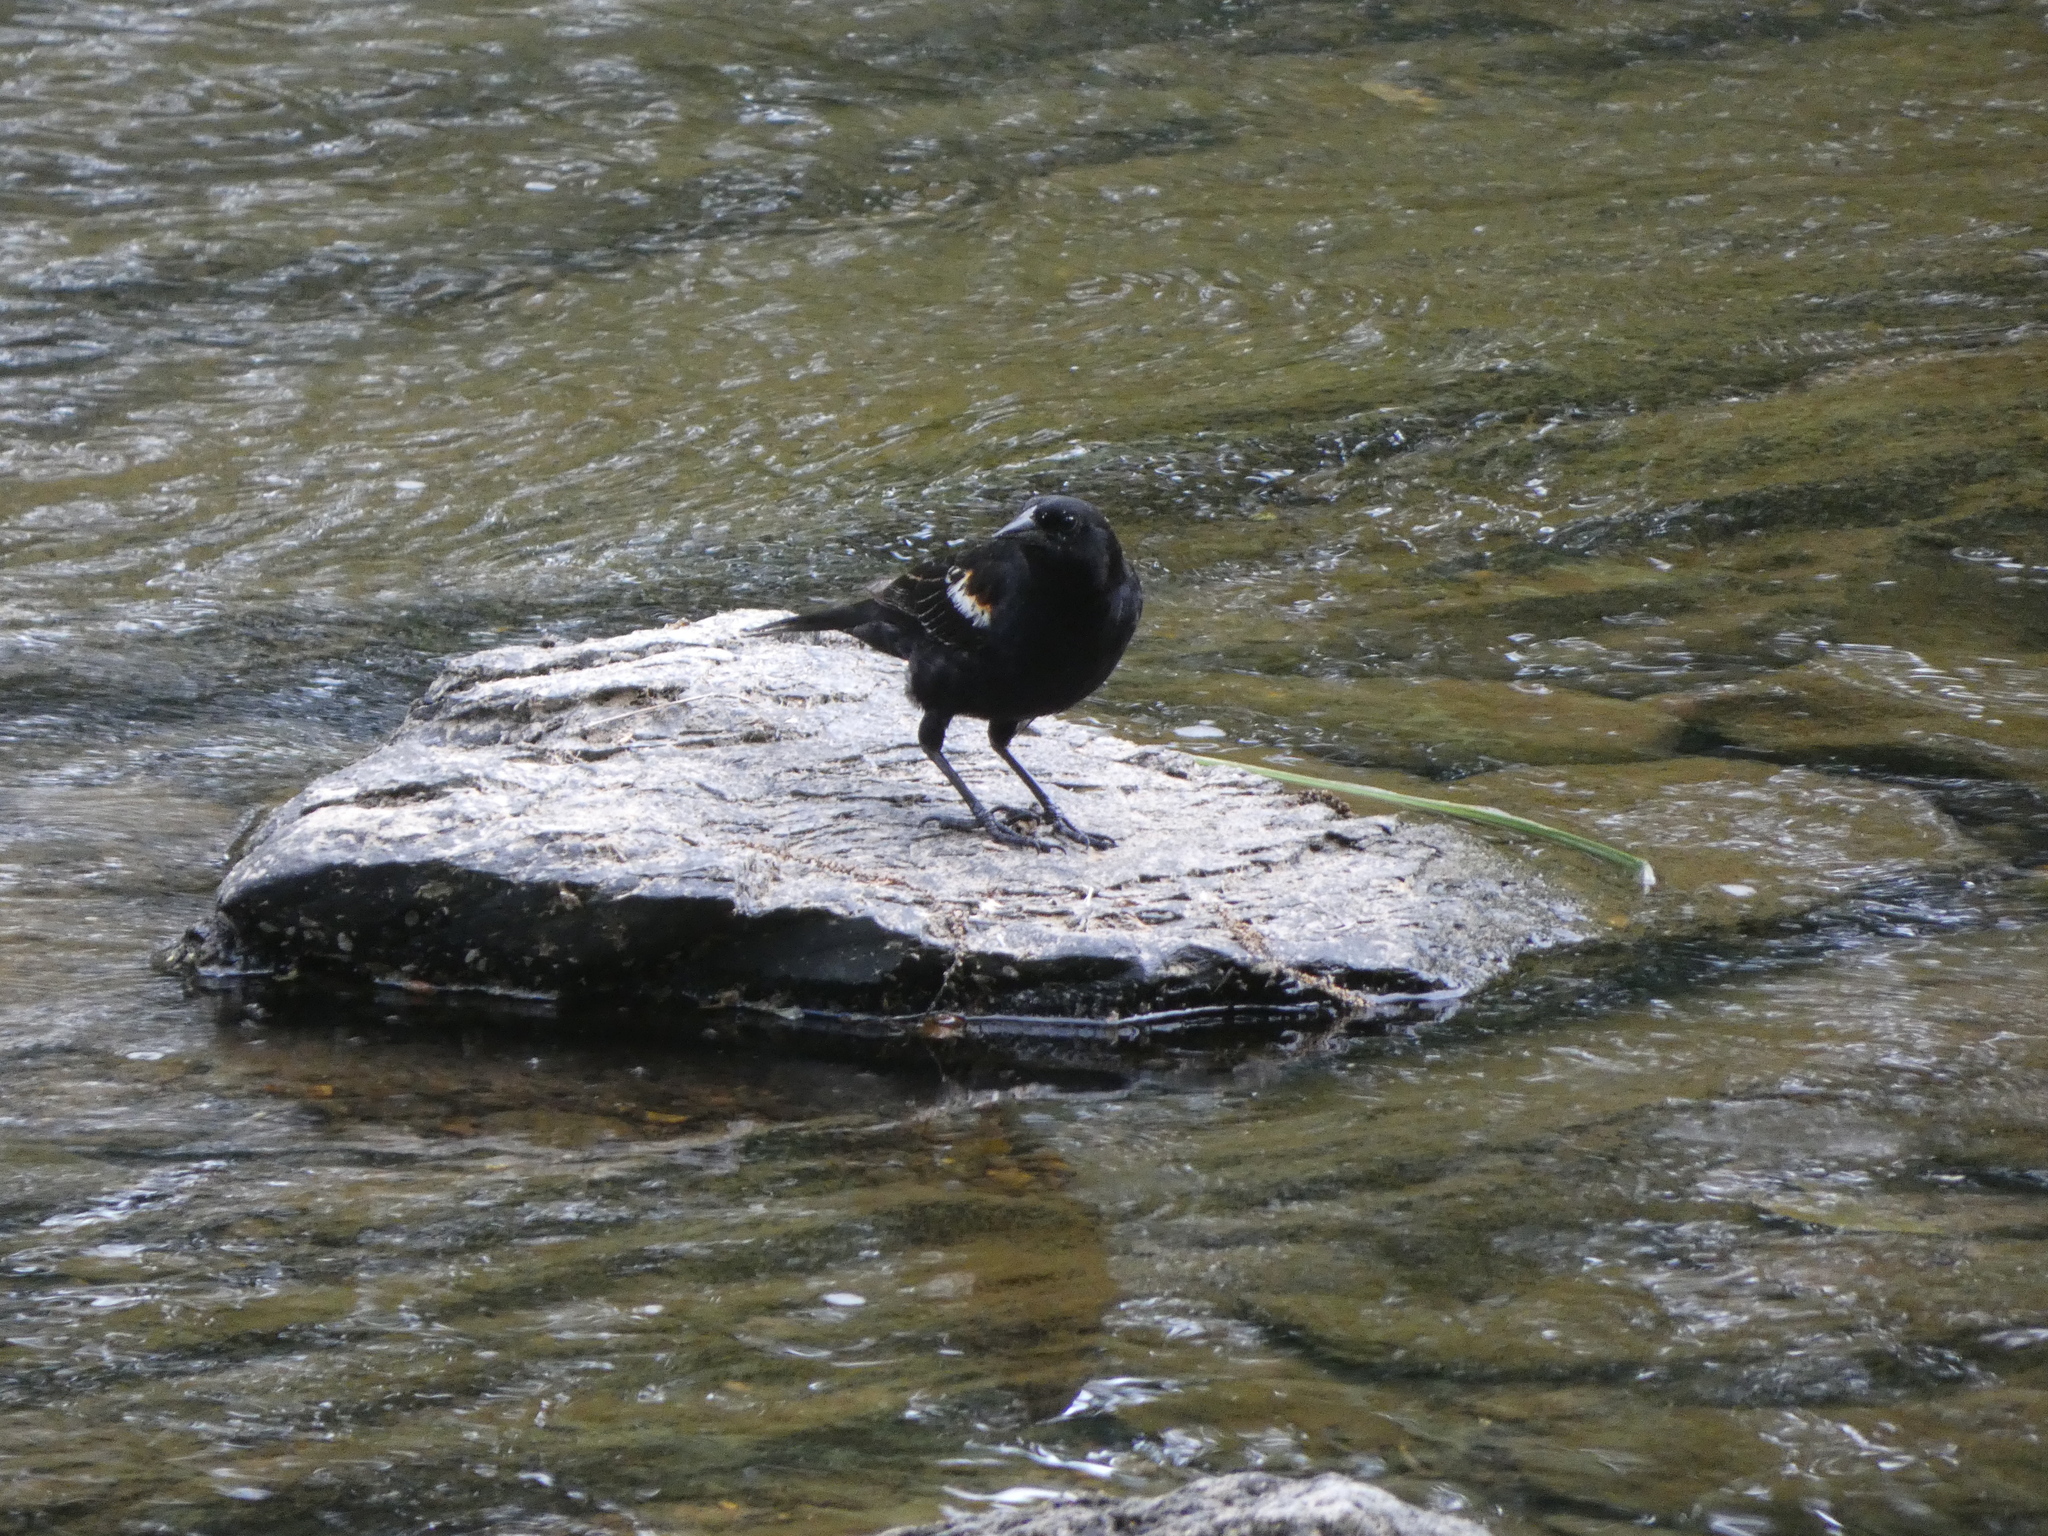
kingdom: Animalia
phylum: Chordata
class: Aves
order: Passeriformes
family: Icteridae
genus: Agelaius
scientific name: Agelaius phoeniceus
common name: Red-winged blackbird
